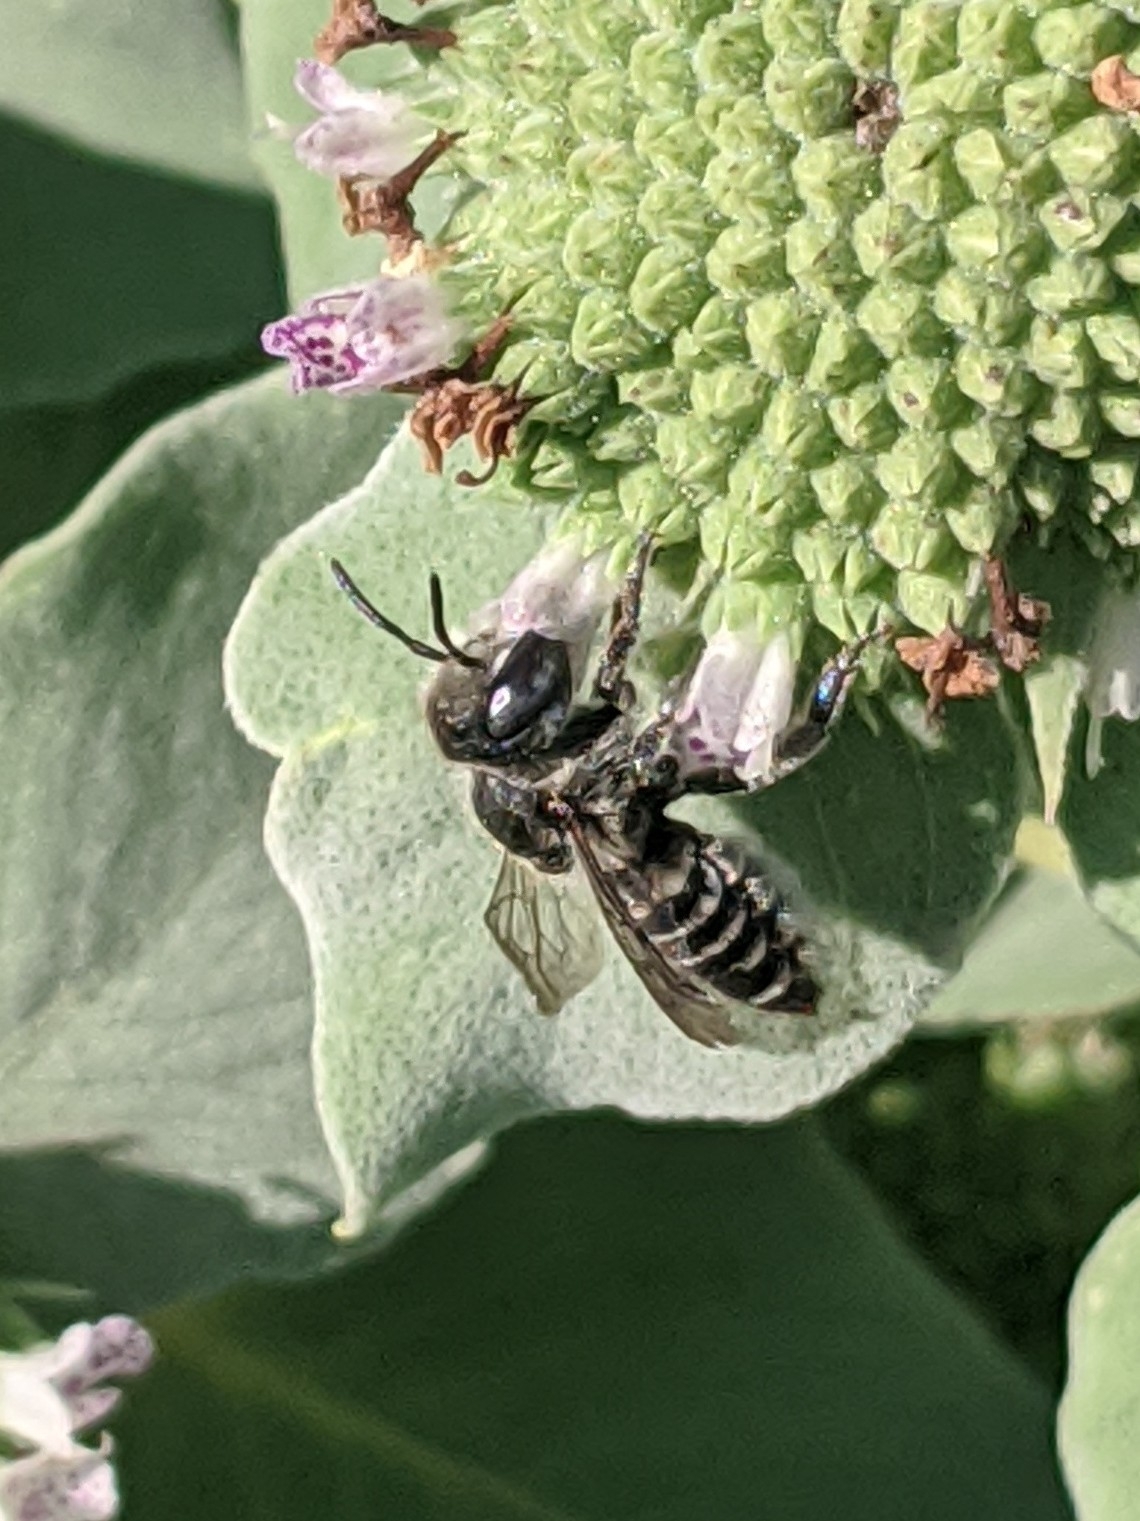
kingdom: Animalia
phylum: Arthropoda
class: Insecta
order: Hymenoptera
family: Megachilidae
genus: Megachile
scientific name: Megachile rotundata
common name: Alfalfa leafcutting bee
